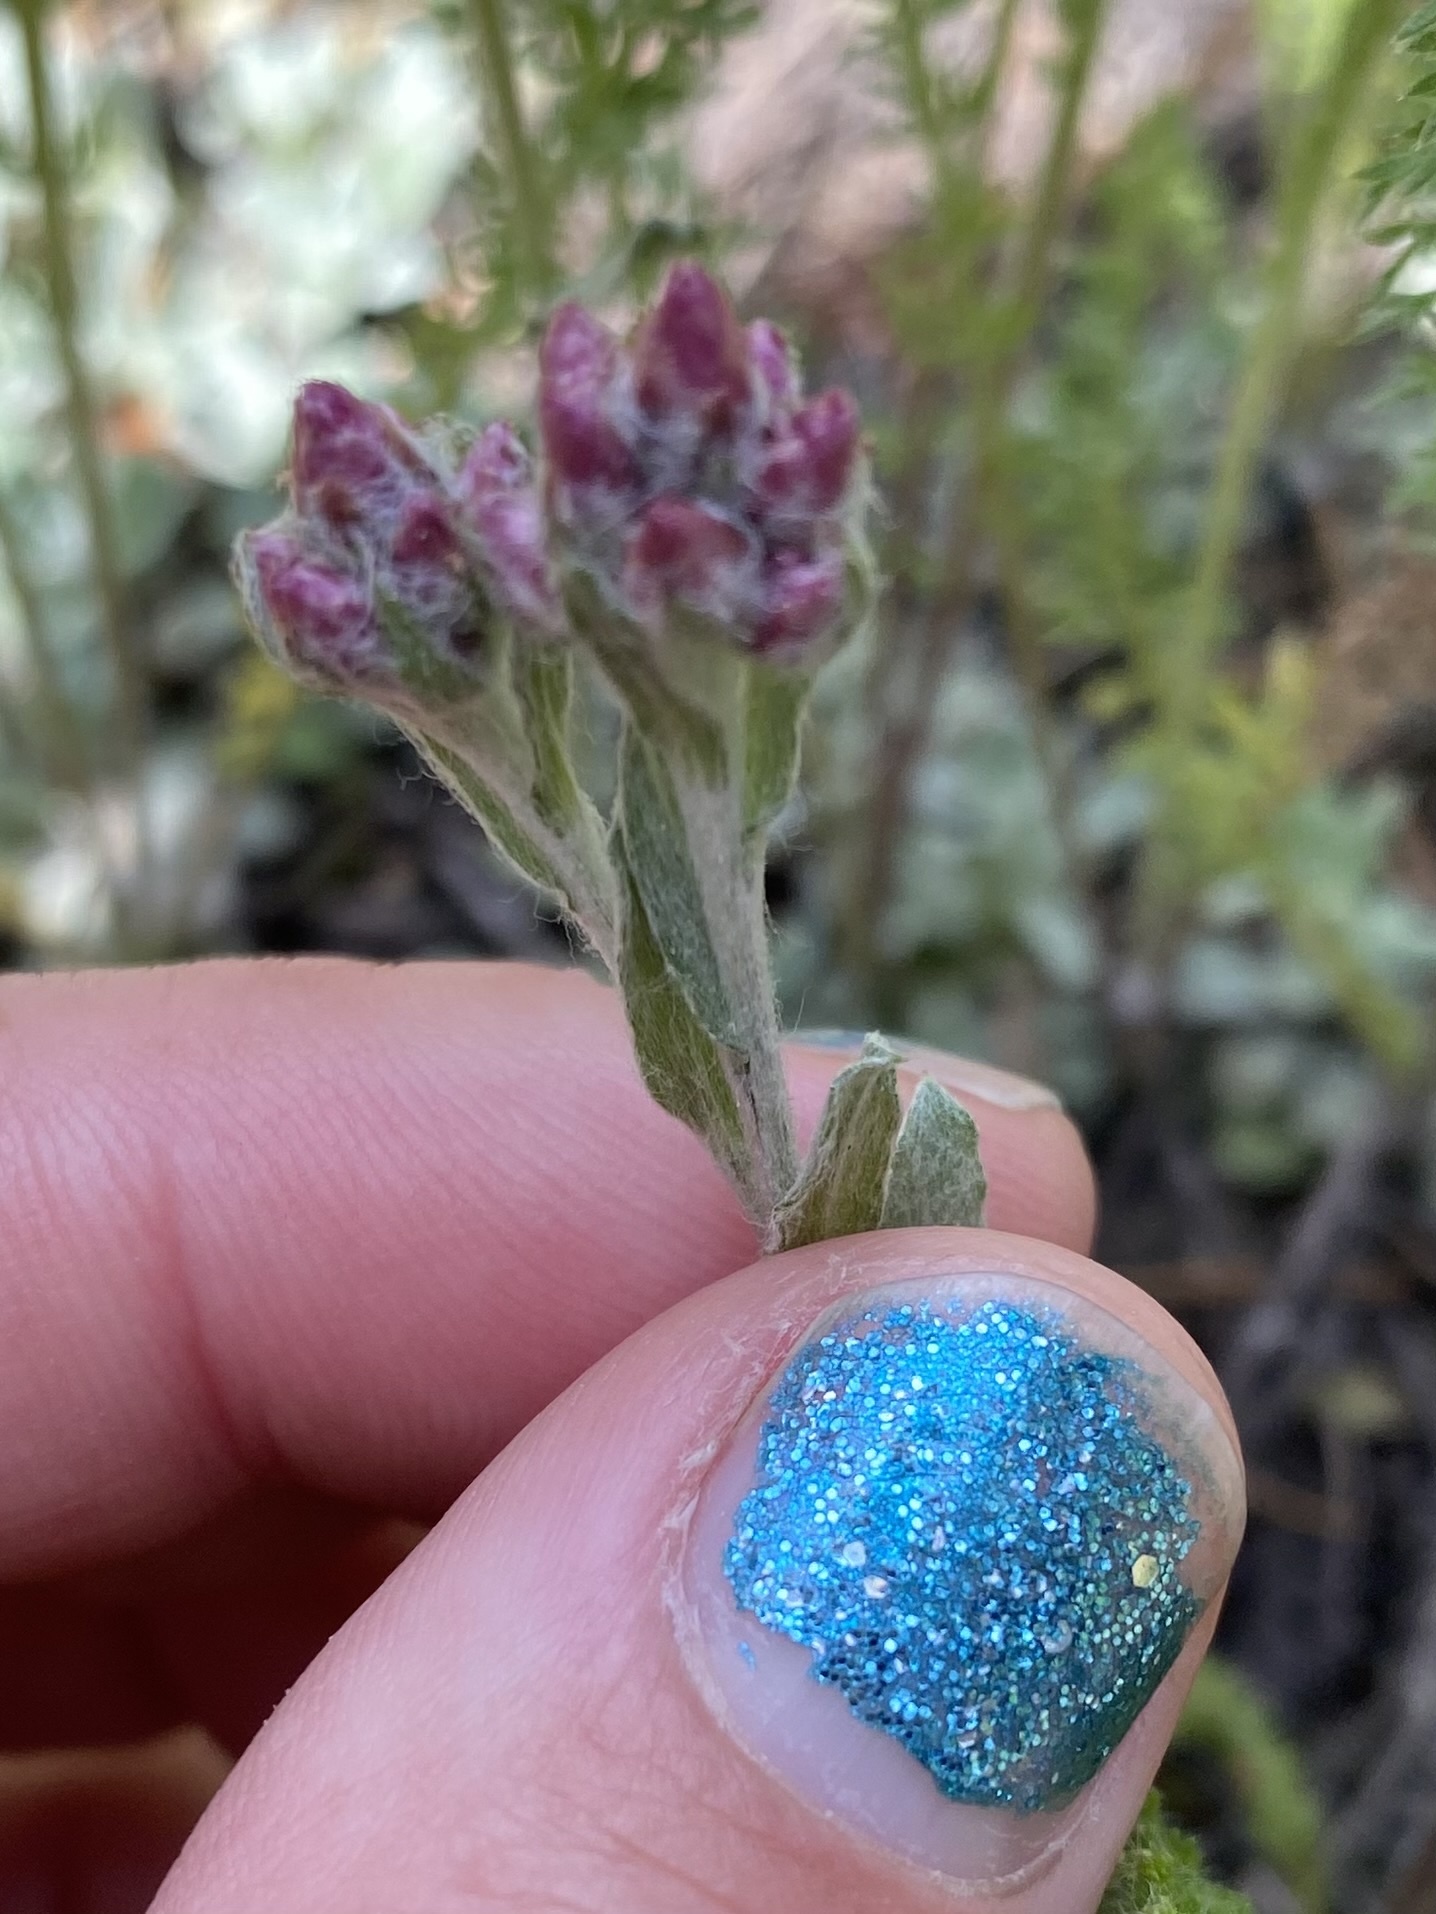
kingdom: Plantae
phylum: Tracheophyta
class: Magnoliopsida
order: Asterales
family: Asteraceae
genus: Antennaria
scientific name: Antennaria rosea
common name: Rosy pussytoes
